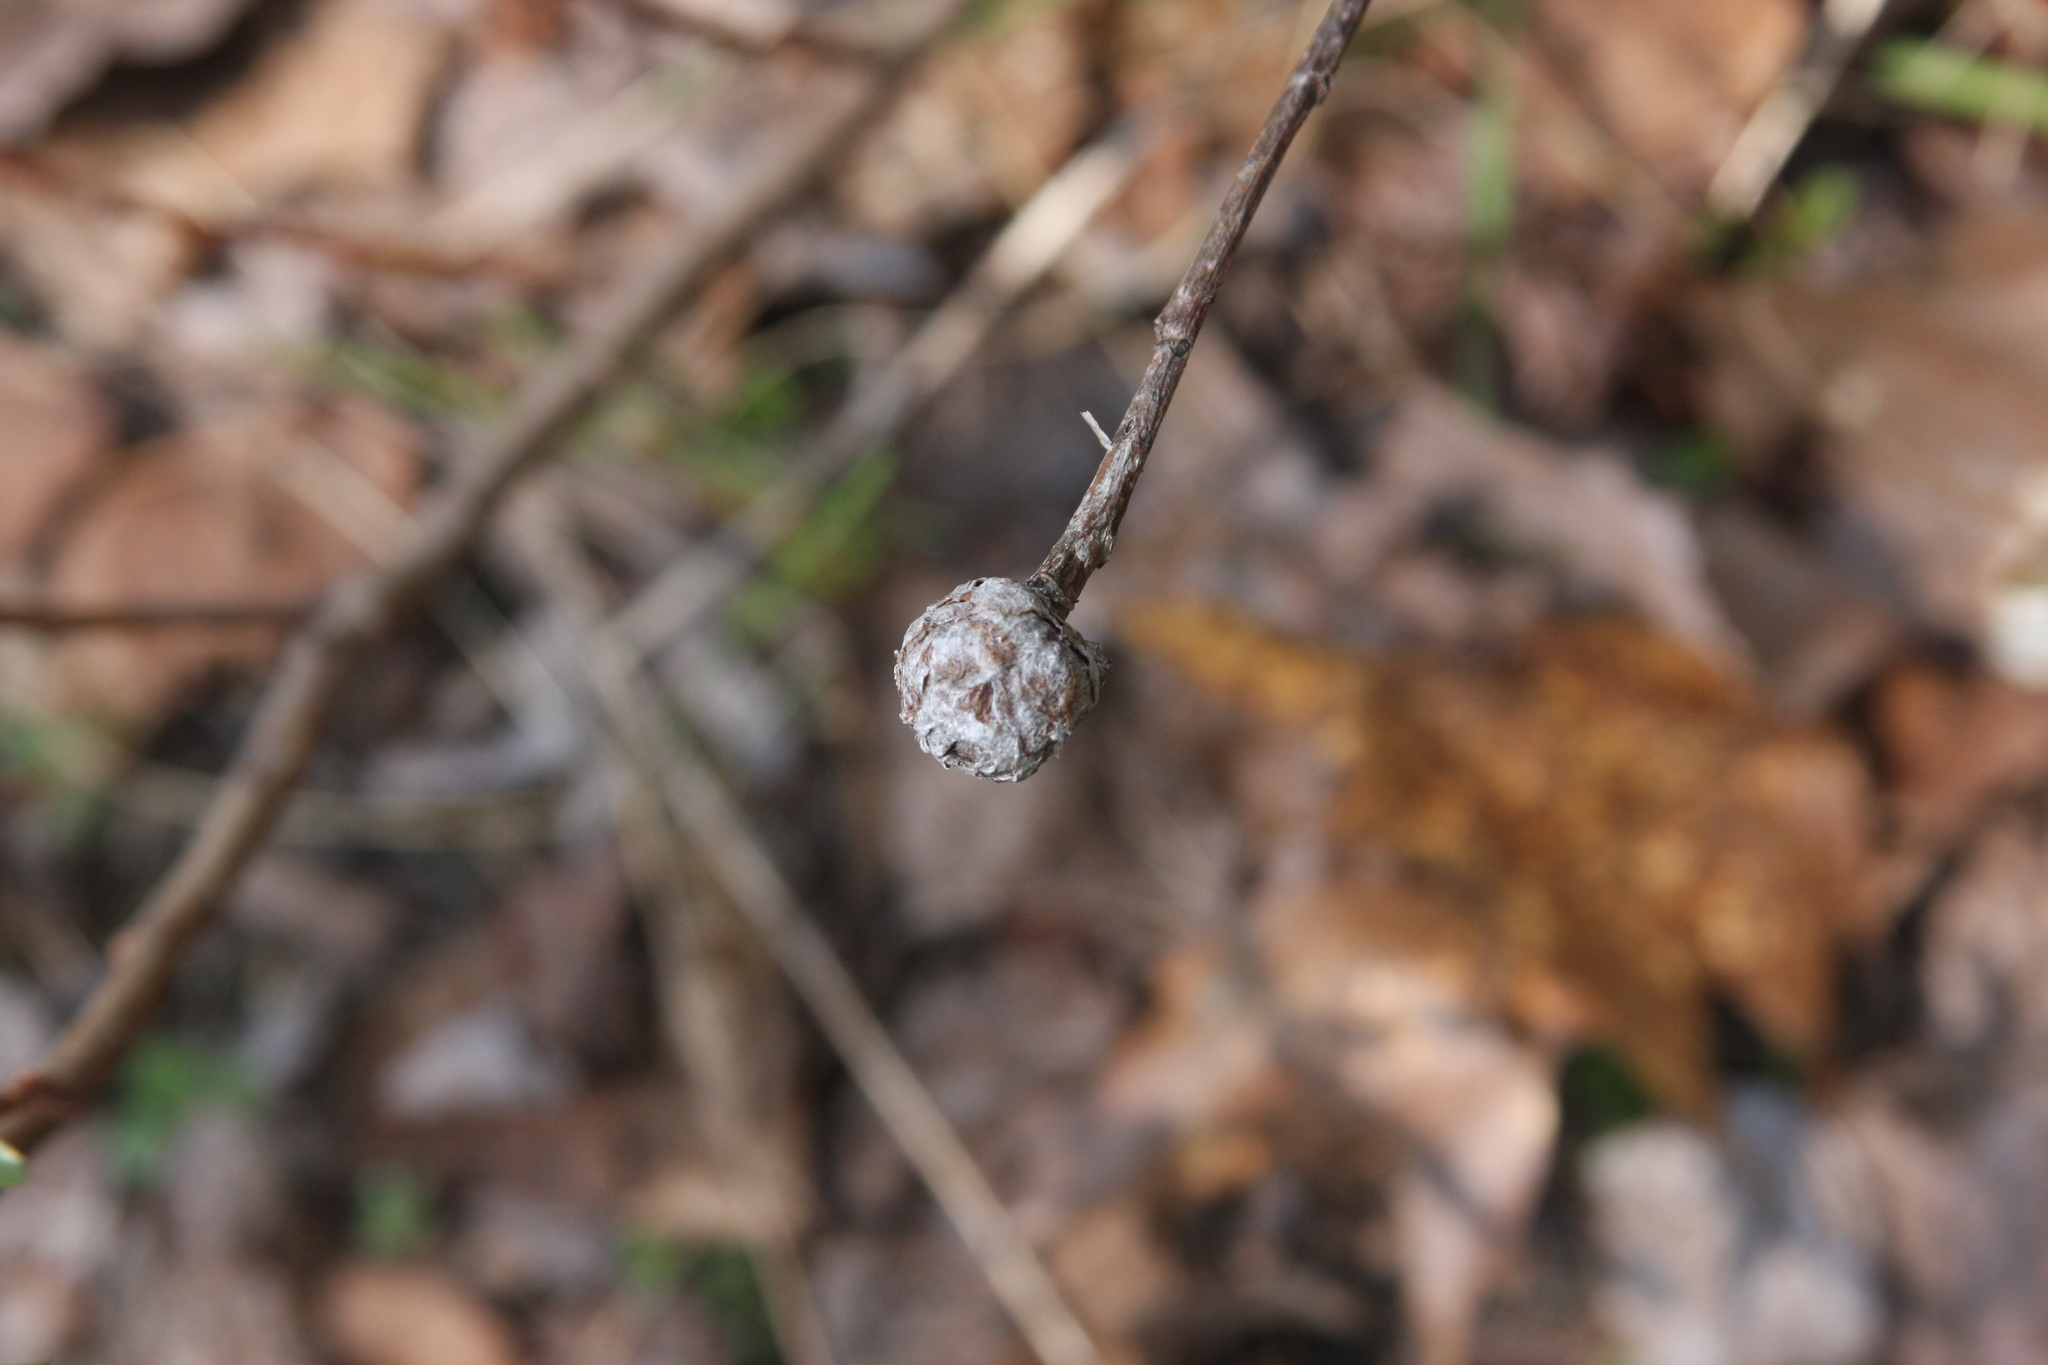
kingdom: Animalia
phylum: Arthropoda
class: Insecta
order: Diptera
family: Cecidomyiidae
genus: Rabdophaga
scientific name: Rabdophaga strobiloides
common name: Willow pinecone gall midge
